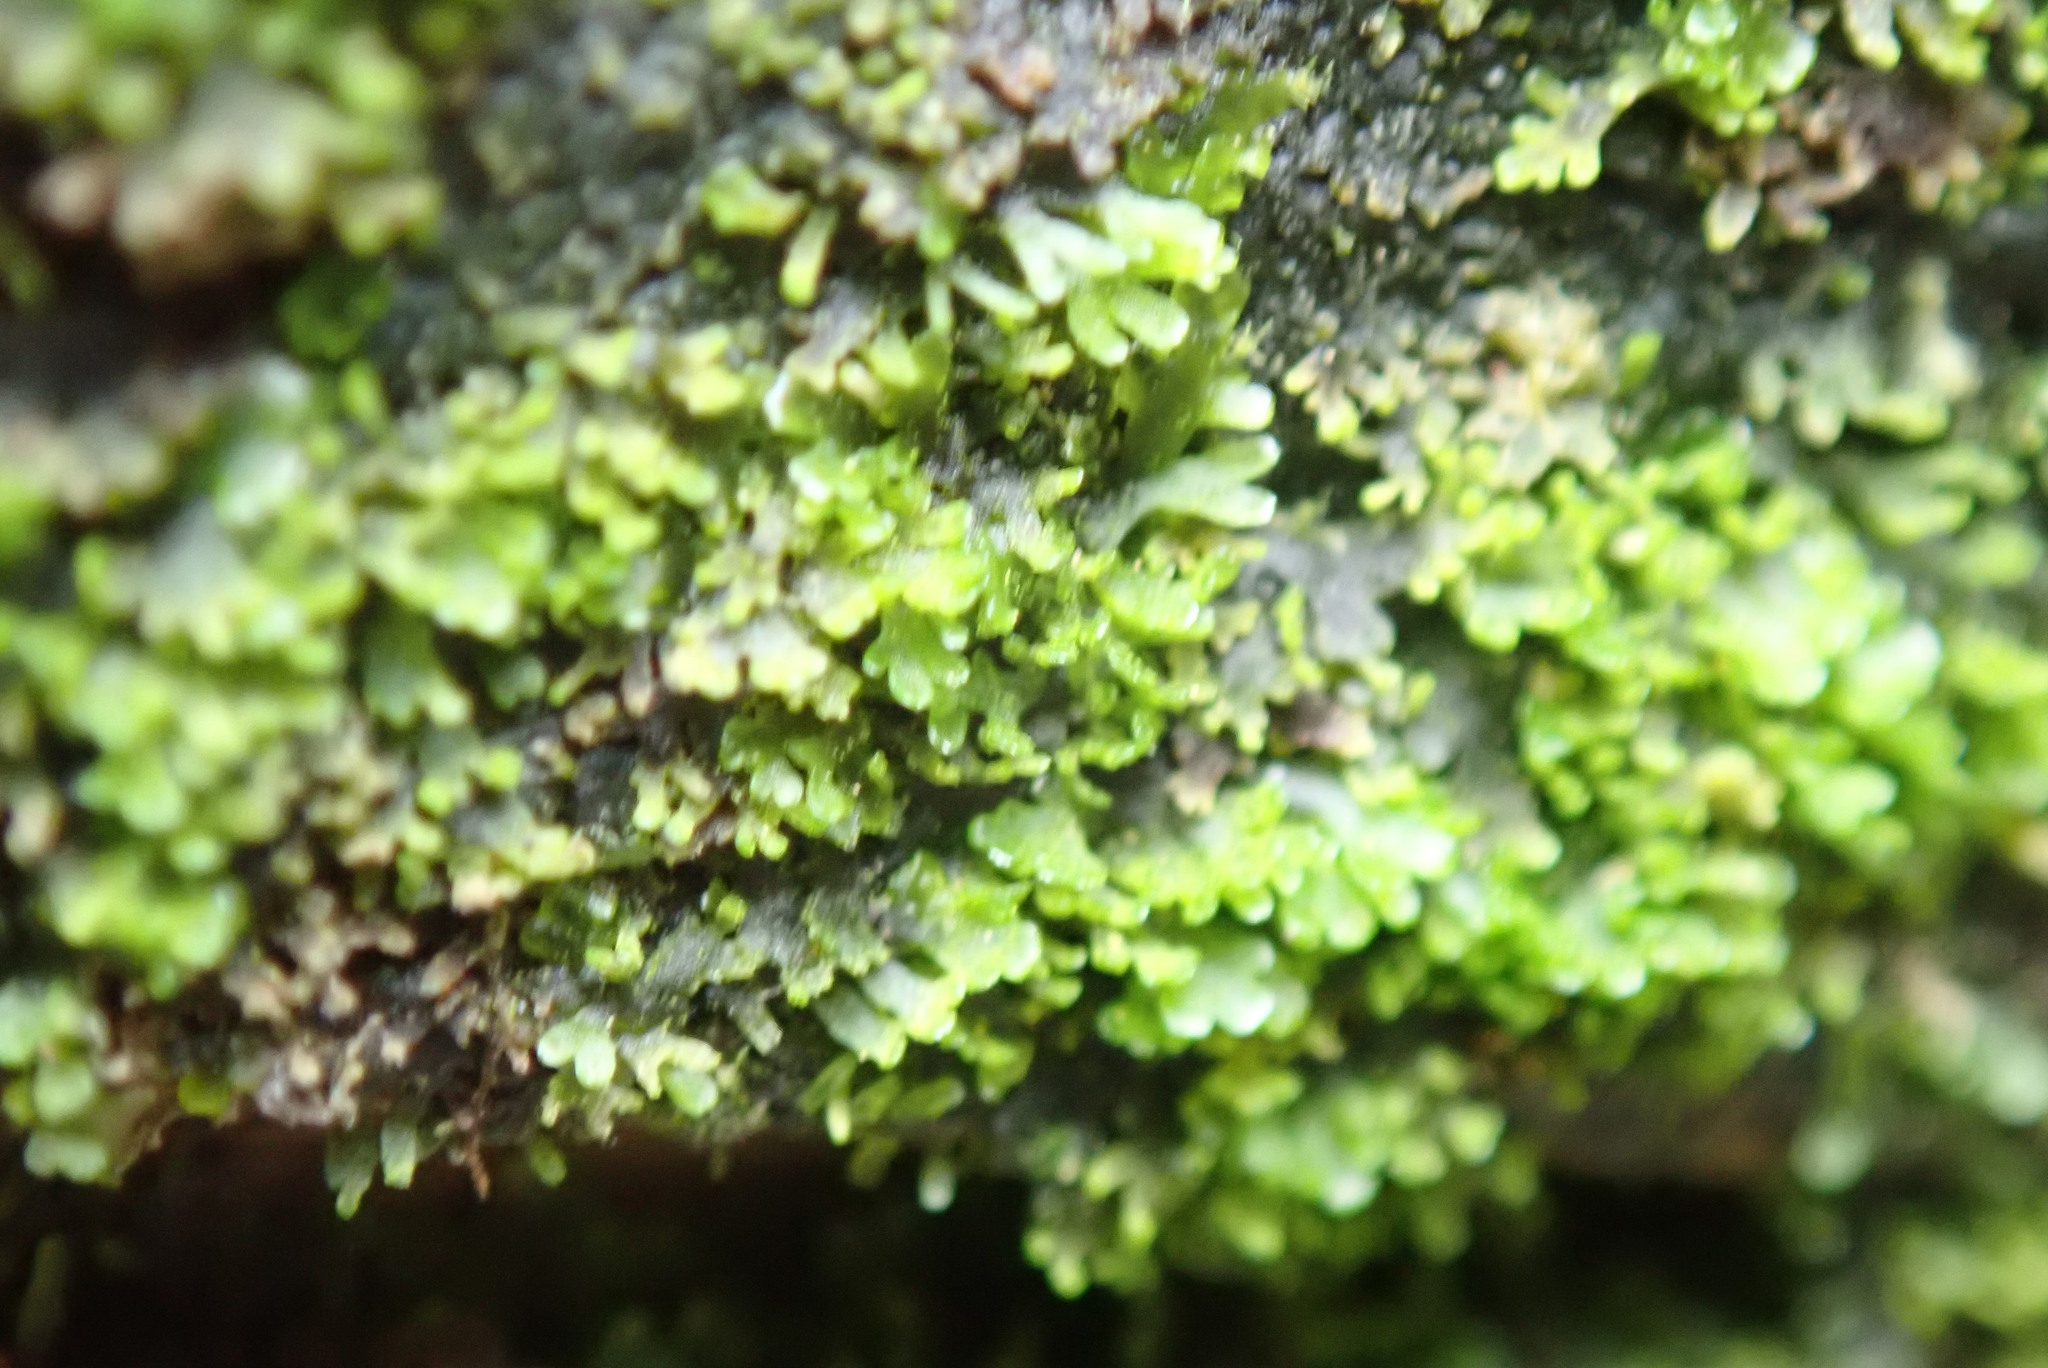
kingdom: Plantae
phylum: Marchantiophyta
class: Jungermanniopsida
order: Metzgeriales
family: Aneuraceae
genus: Riccardia
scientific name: Riccardia latifrons
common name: Bog germanderwort
